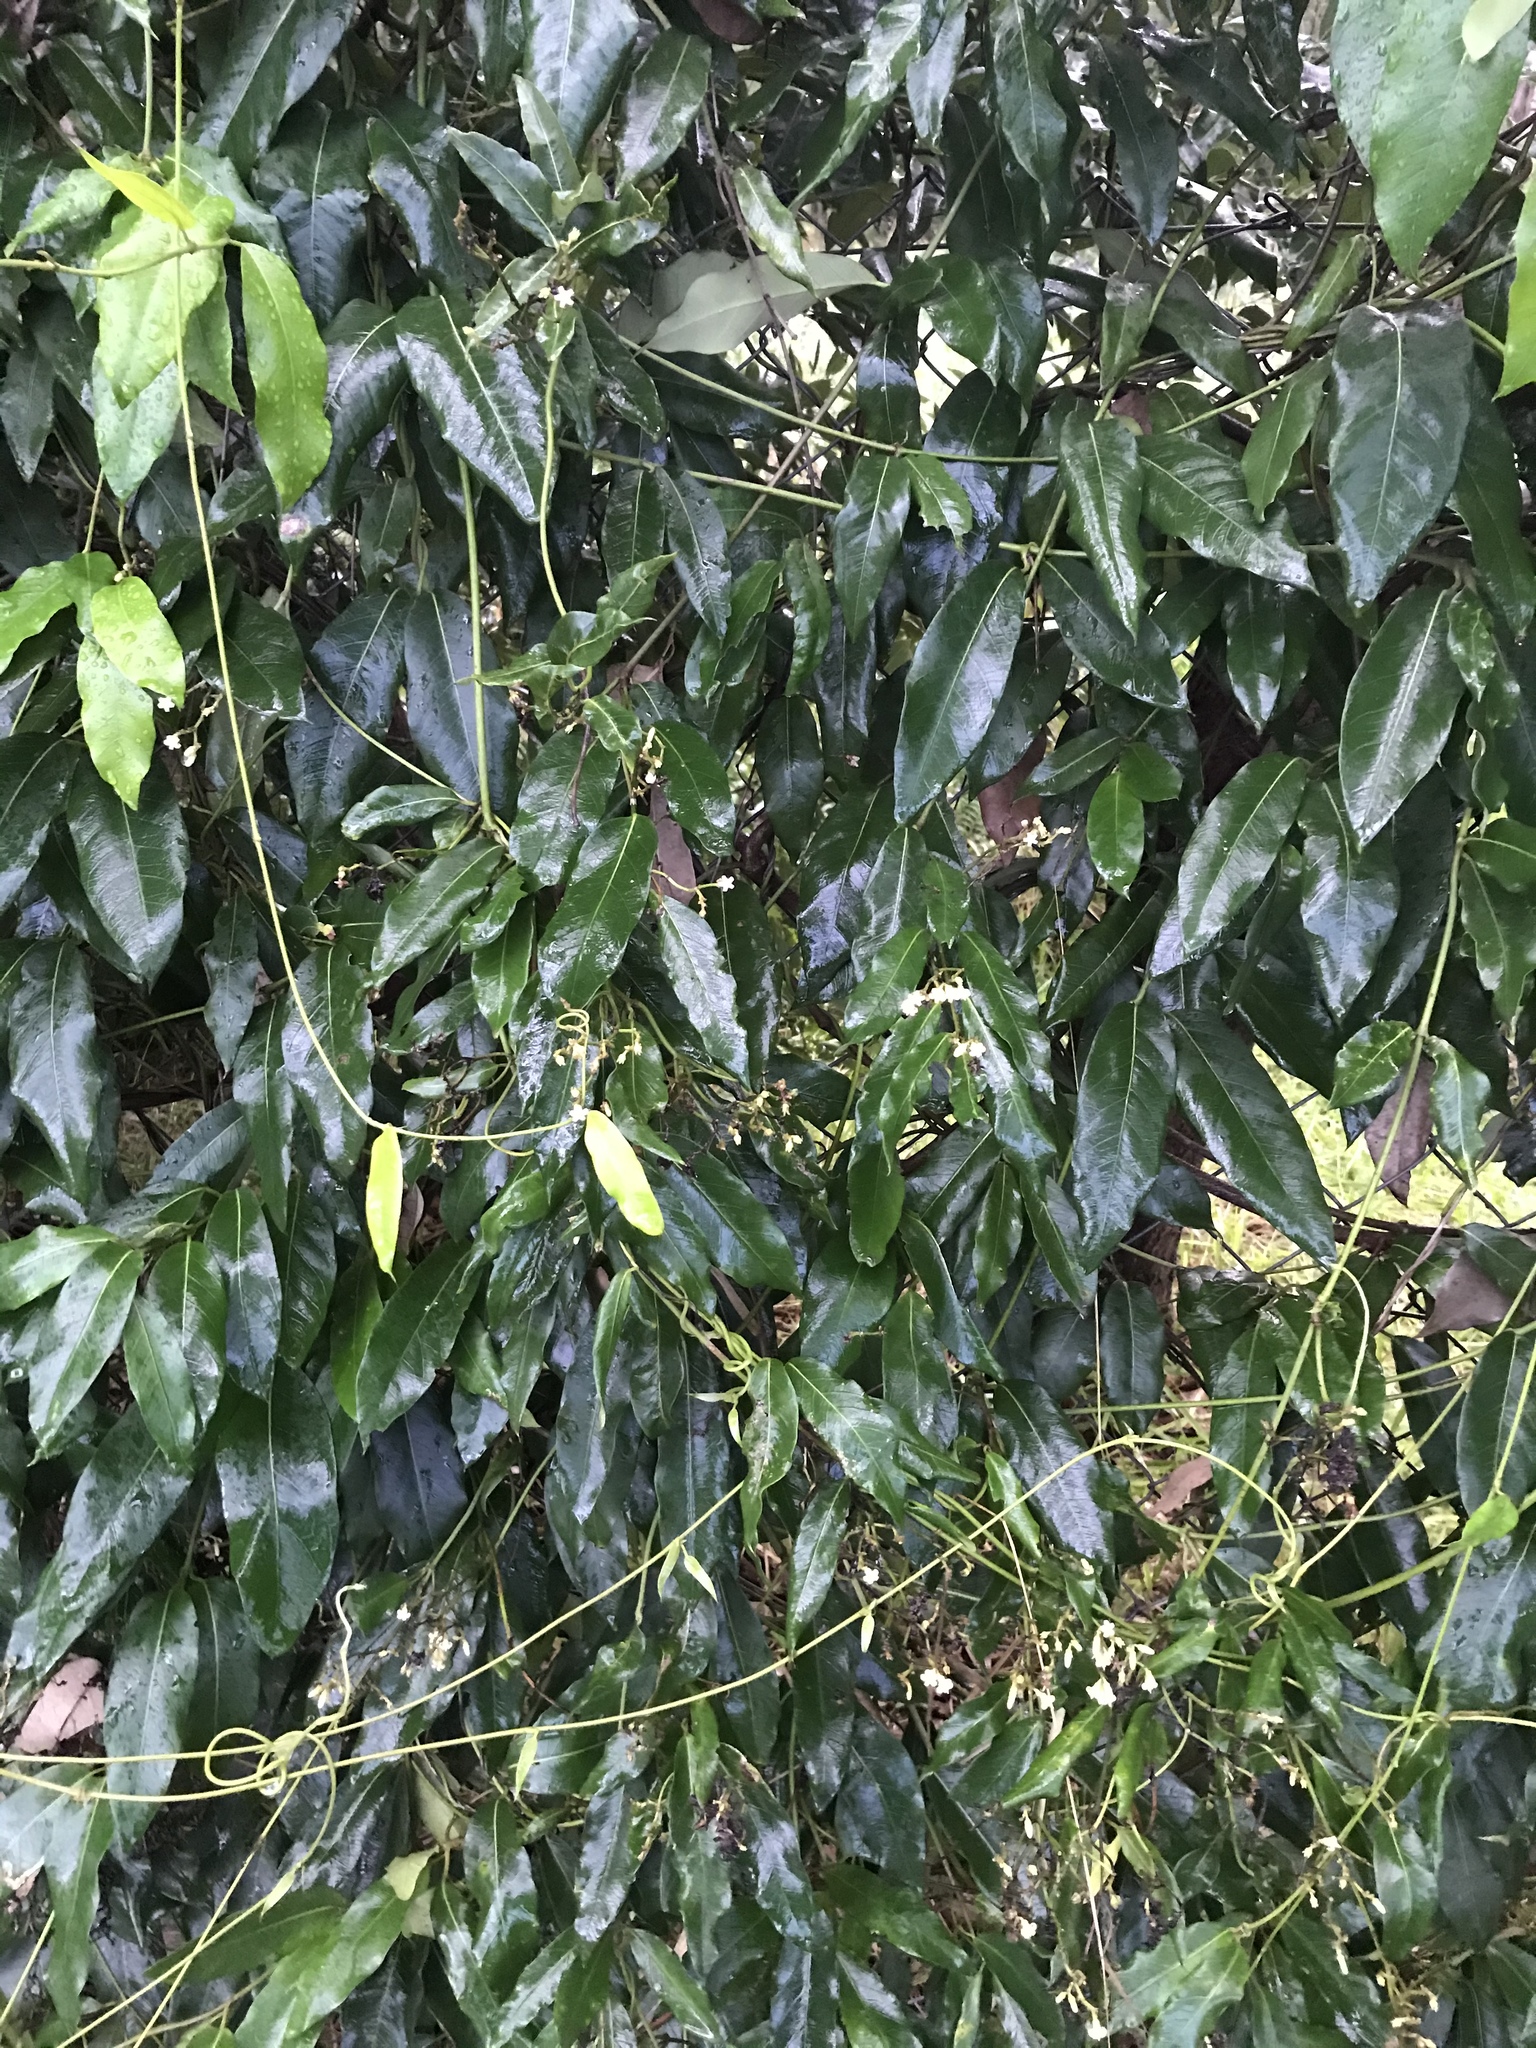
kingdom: Plantae
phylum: Tracheophyta
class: Magnoliopsida
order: Gentianales
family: Apocynaceae
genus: Parsonsia
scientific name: Parsonsia straminea
